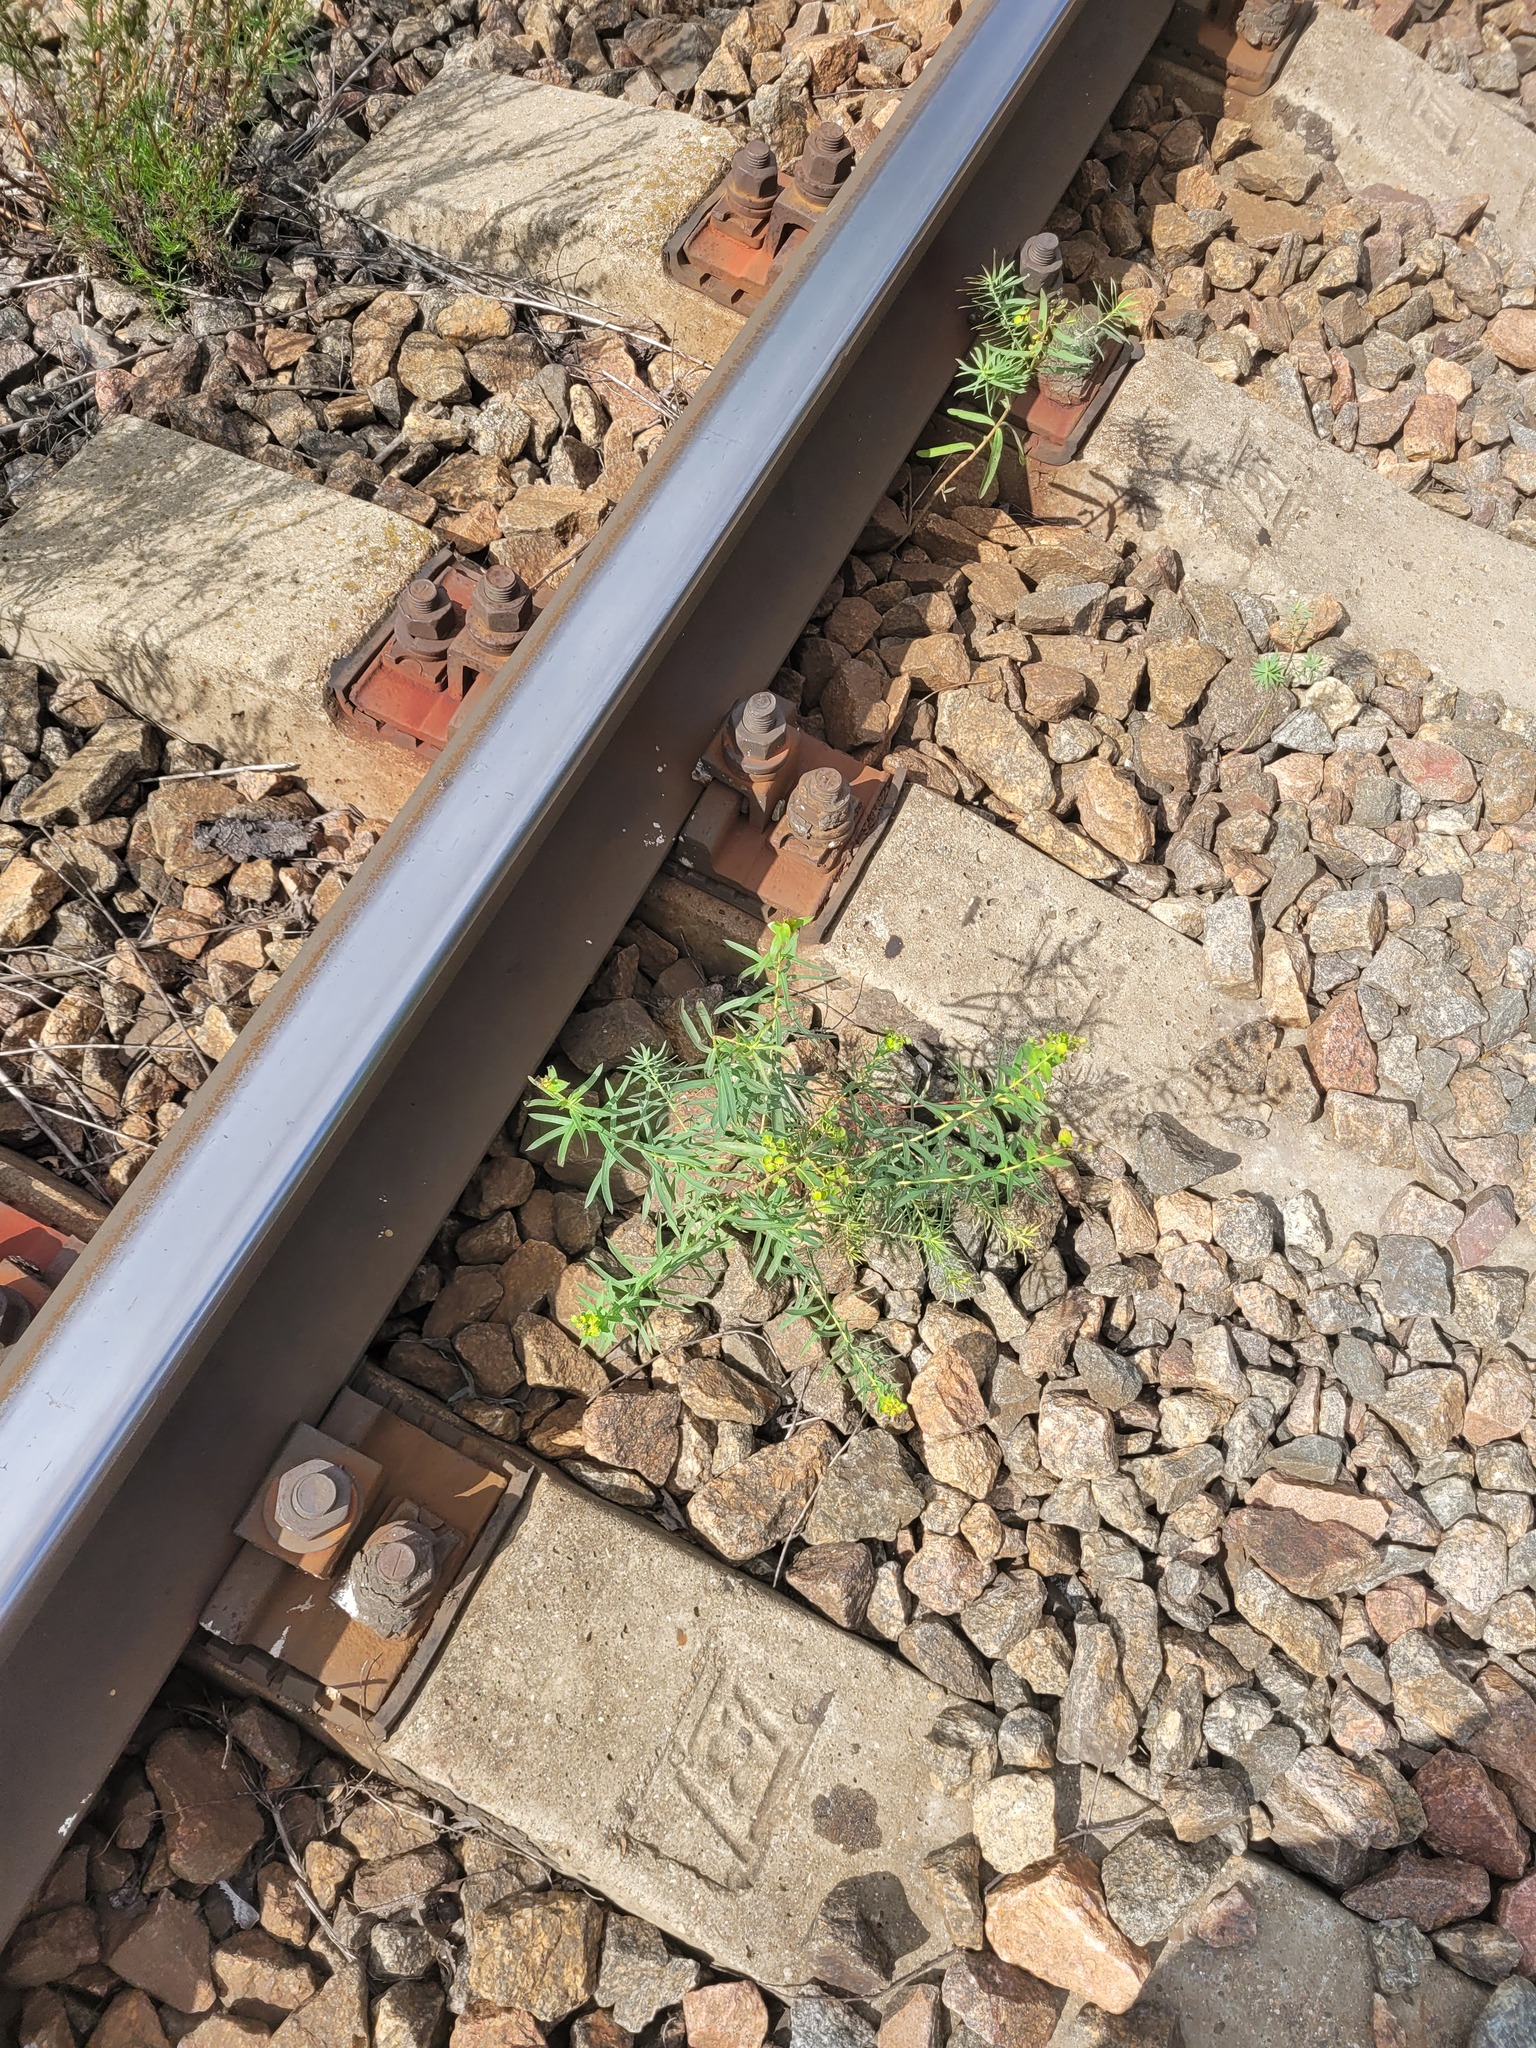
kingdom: Plantae
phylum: Tracheophyta
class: Magnoliopsida
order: Malpighiales
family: Euphorbiaceae
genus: Euphorbia
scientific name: Euphorbia virgata
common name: Leafy spurge
